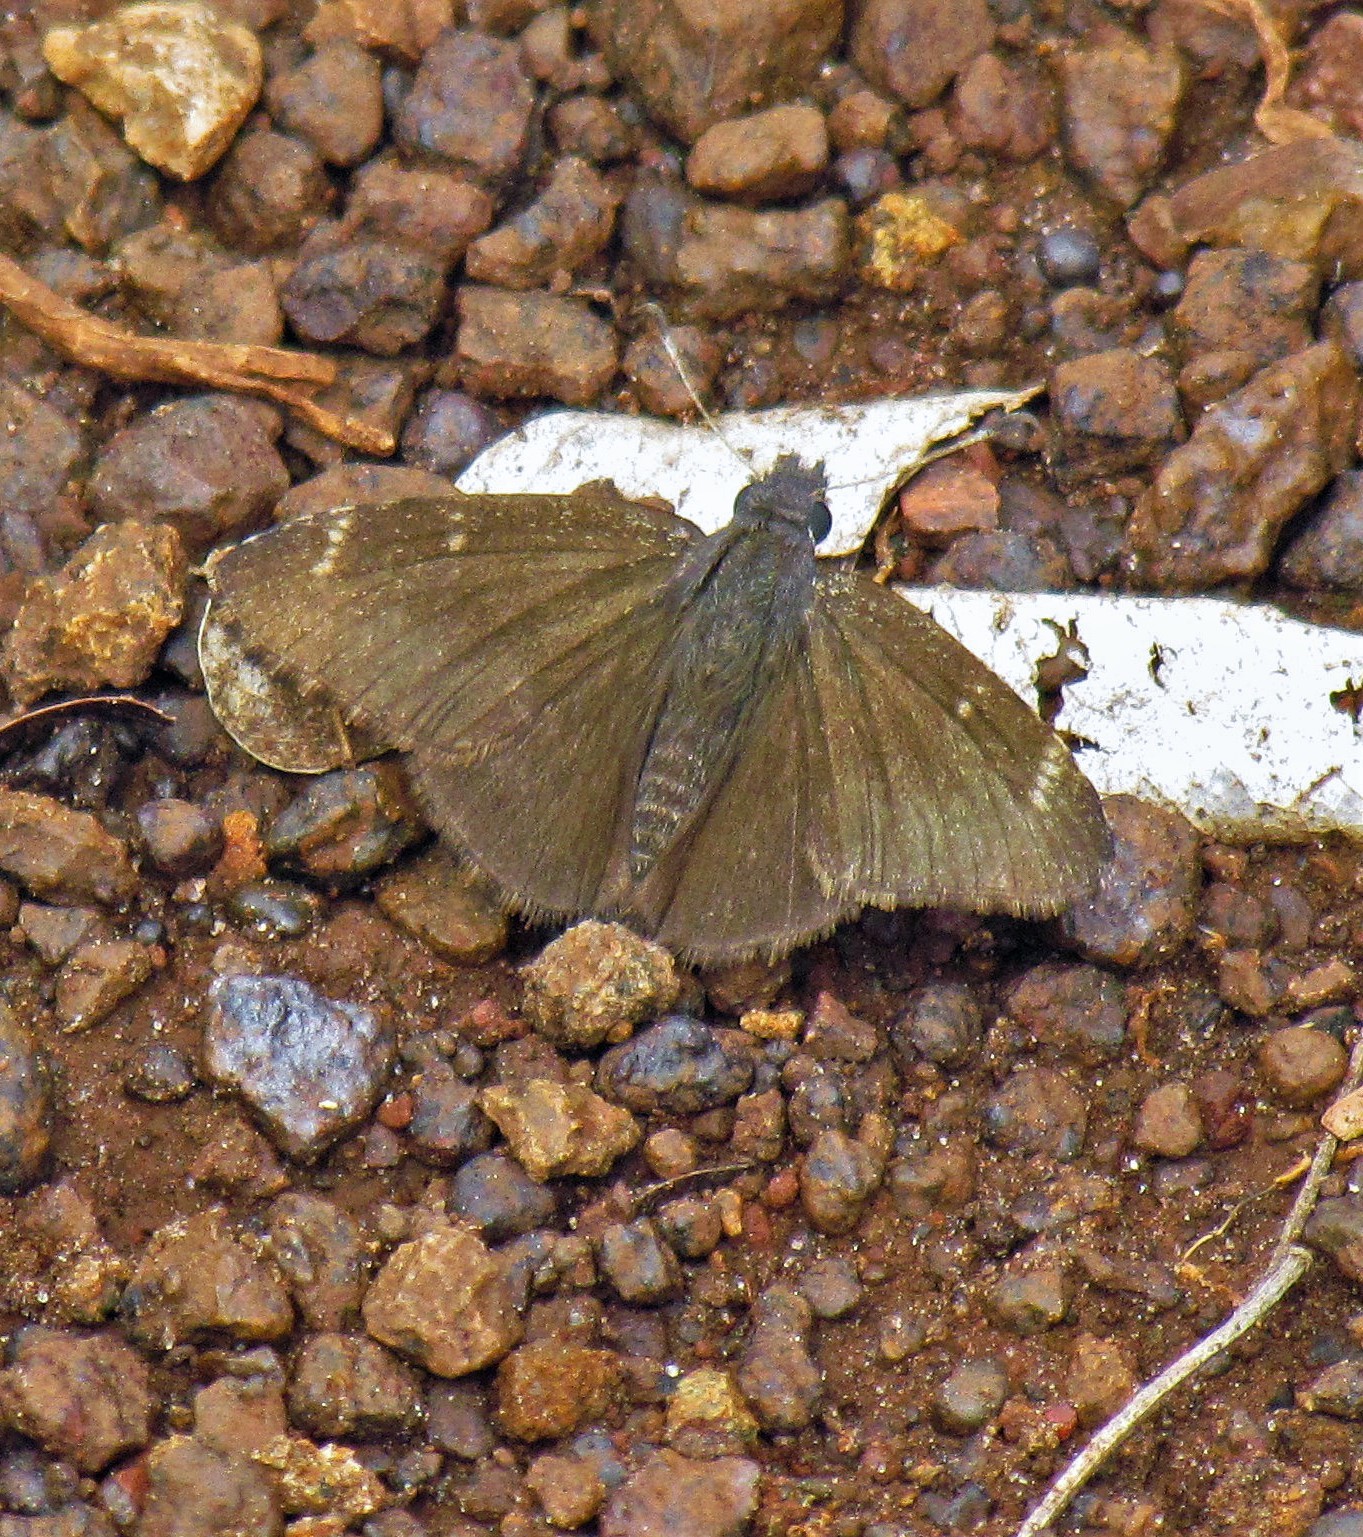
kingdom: Animalia
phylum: Arthropoda
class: Insecta
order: Lepidoptera
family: Hesperiidae
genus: Caicella
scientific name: Caicella calchas
